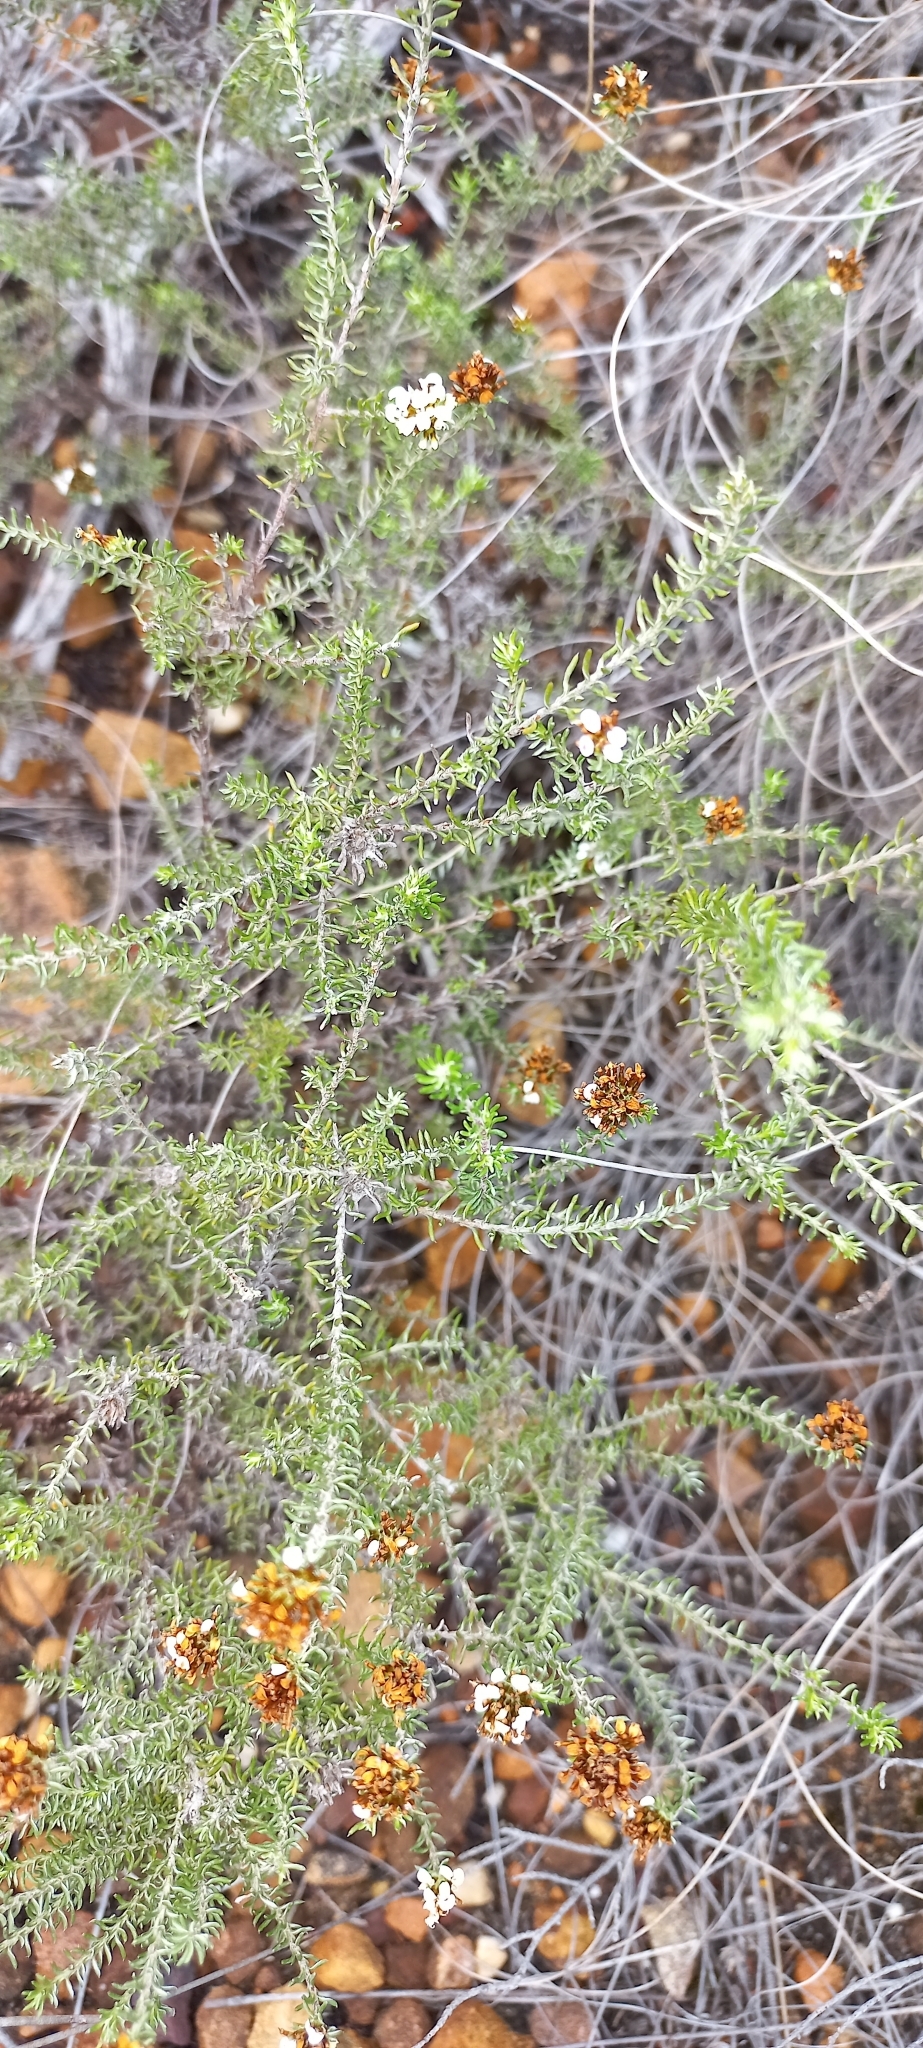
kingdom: Plantae
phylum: Tracheophyta
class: Magnoliopsida
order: Asterales
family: Asteraceae
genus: Disparago
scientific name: Disparago anomala
